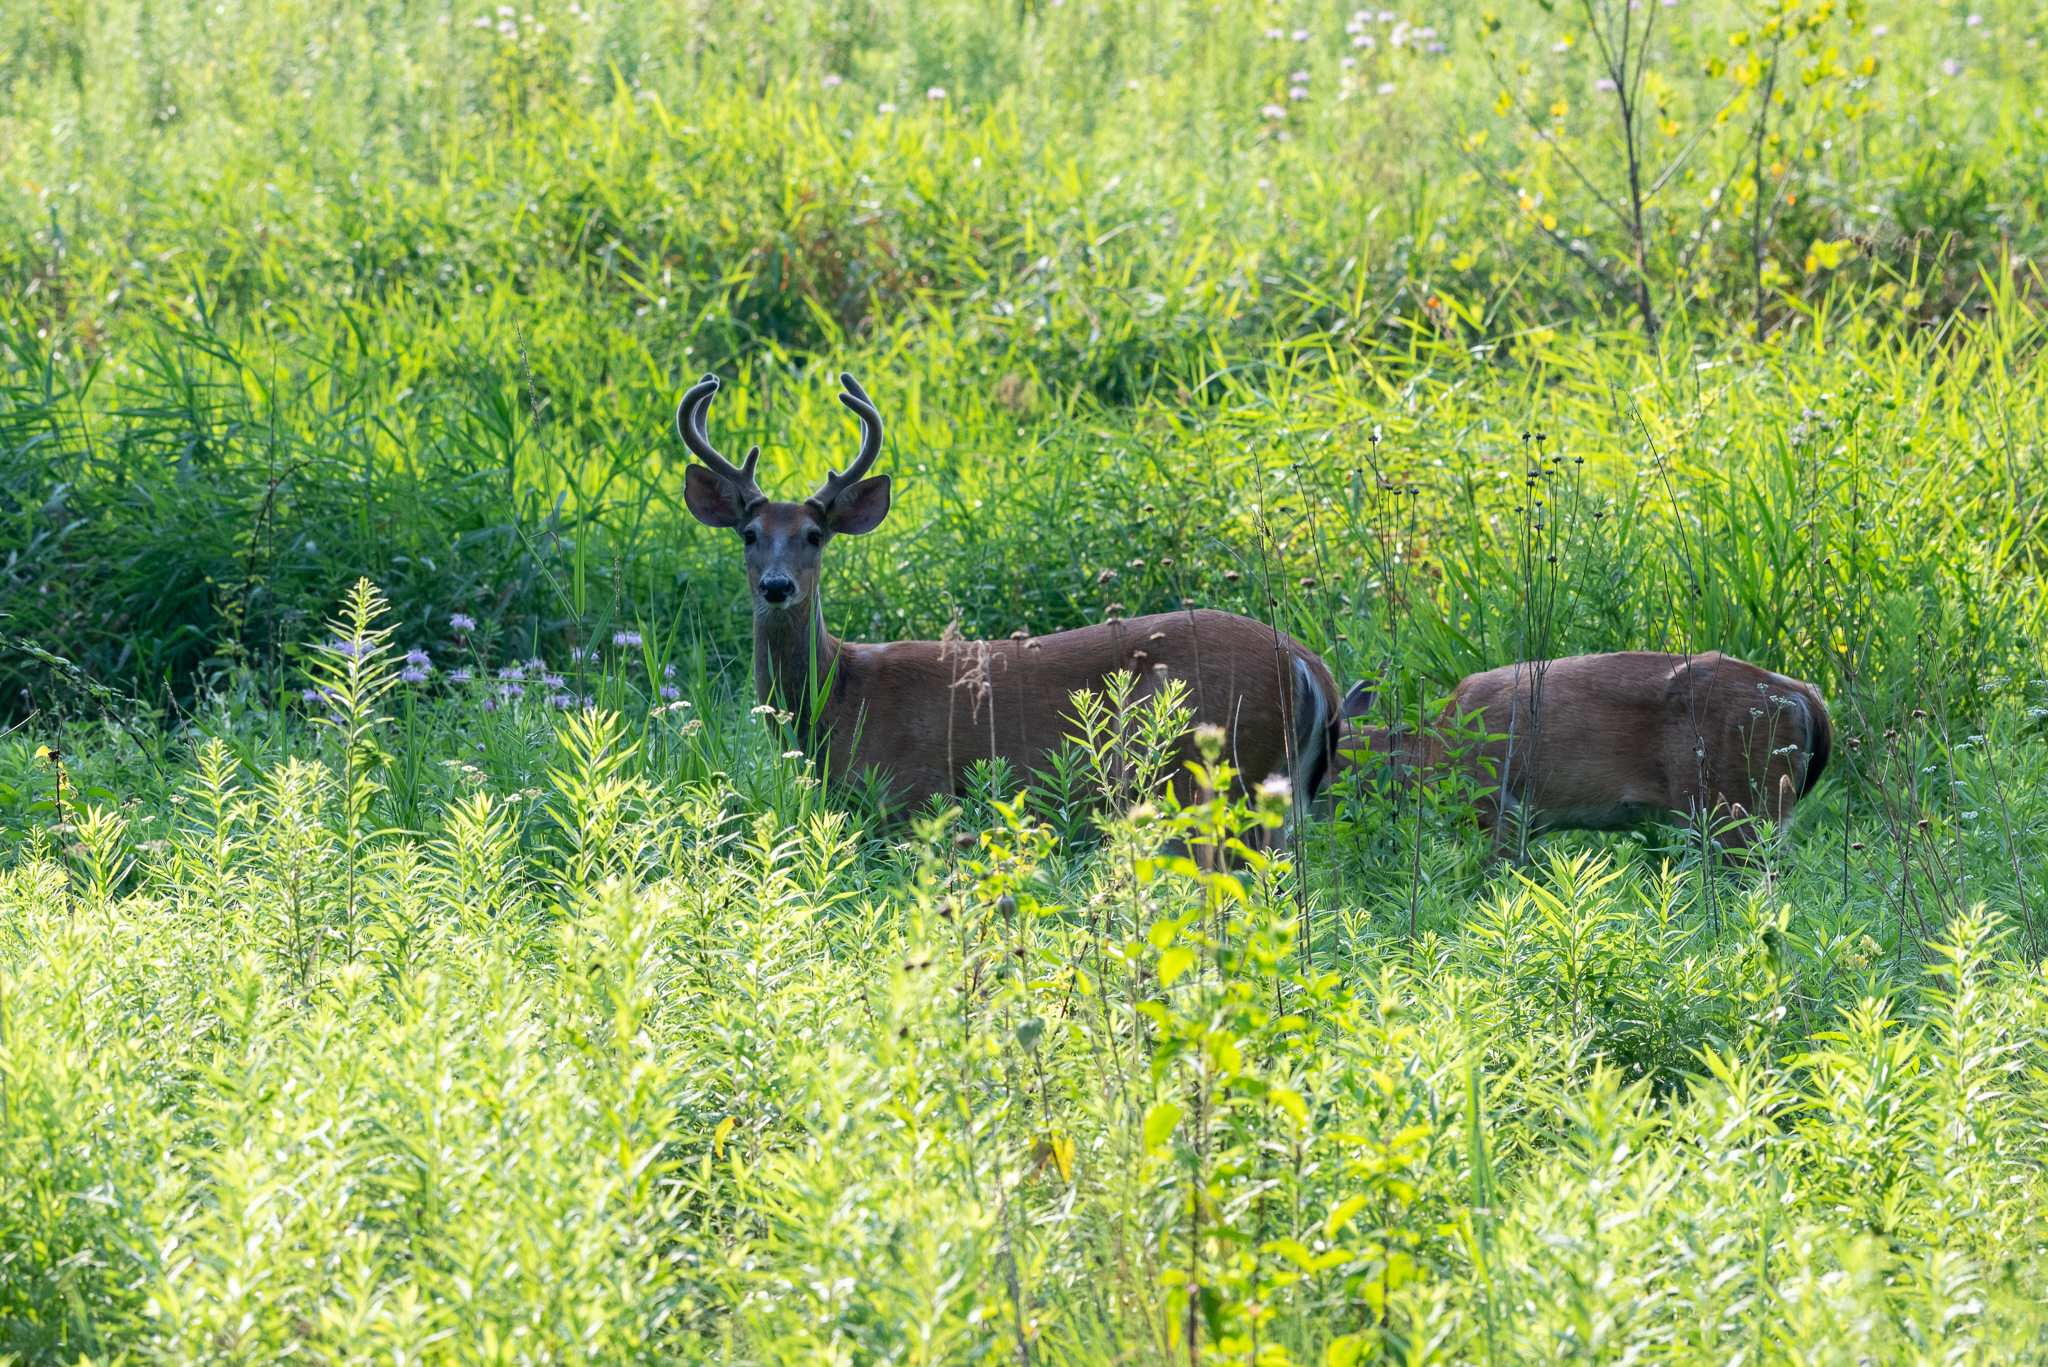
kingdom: Animalia
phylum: Chordata
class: Mammalia
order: Artiodactyla
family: Cervidae
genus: Odocoileus
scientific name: Odocoileus virginianus
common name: White-tailed deer
